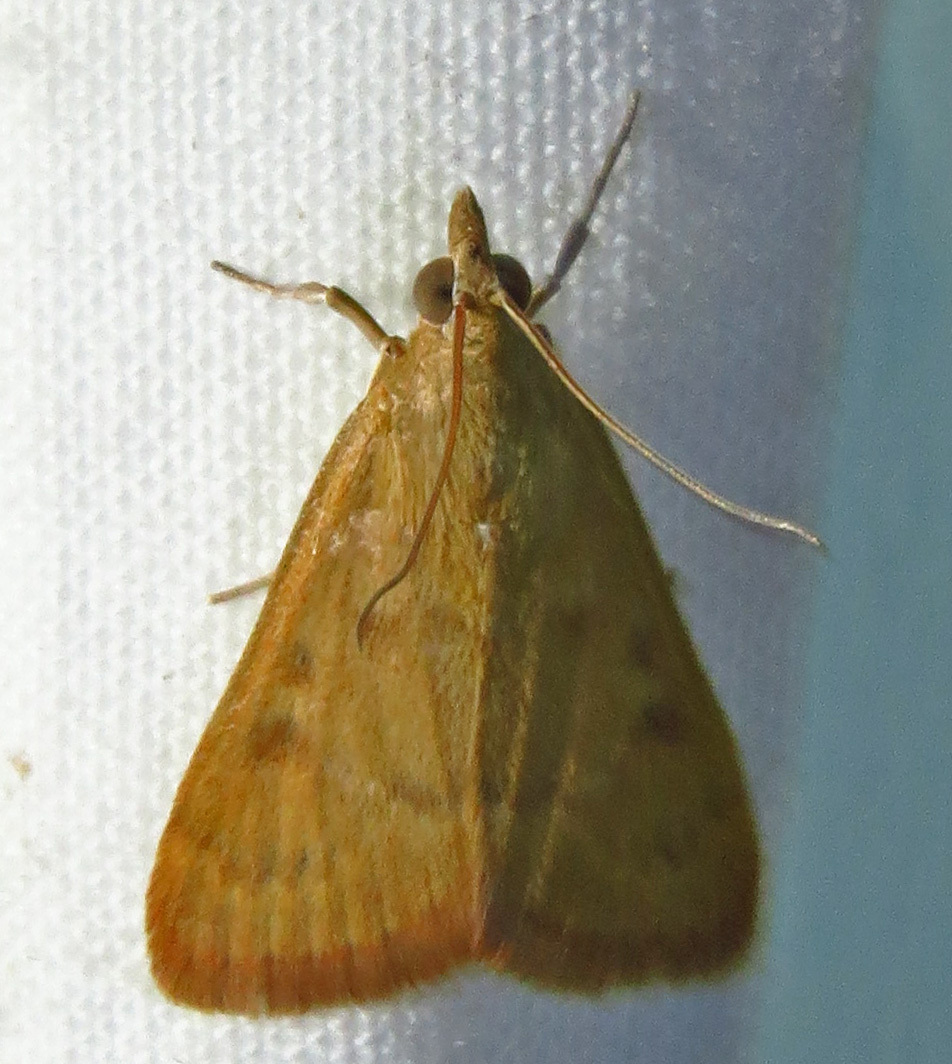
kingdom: Animalia
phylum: Arthropoda
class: Insecta
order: Lepidoptera
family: Crambidae
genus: Udea
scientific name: Udea rubigalis
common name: Celery leaftier moth
